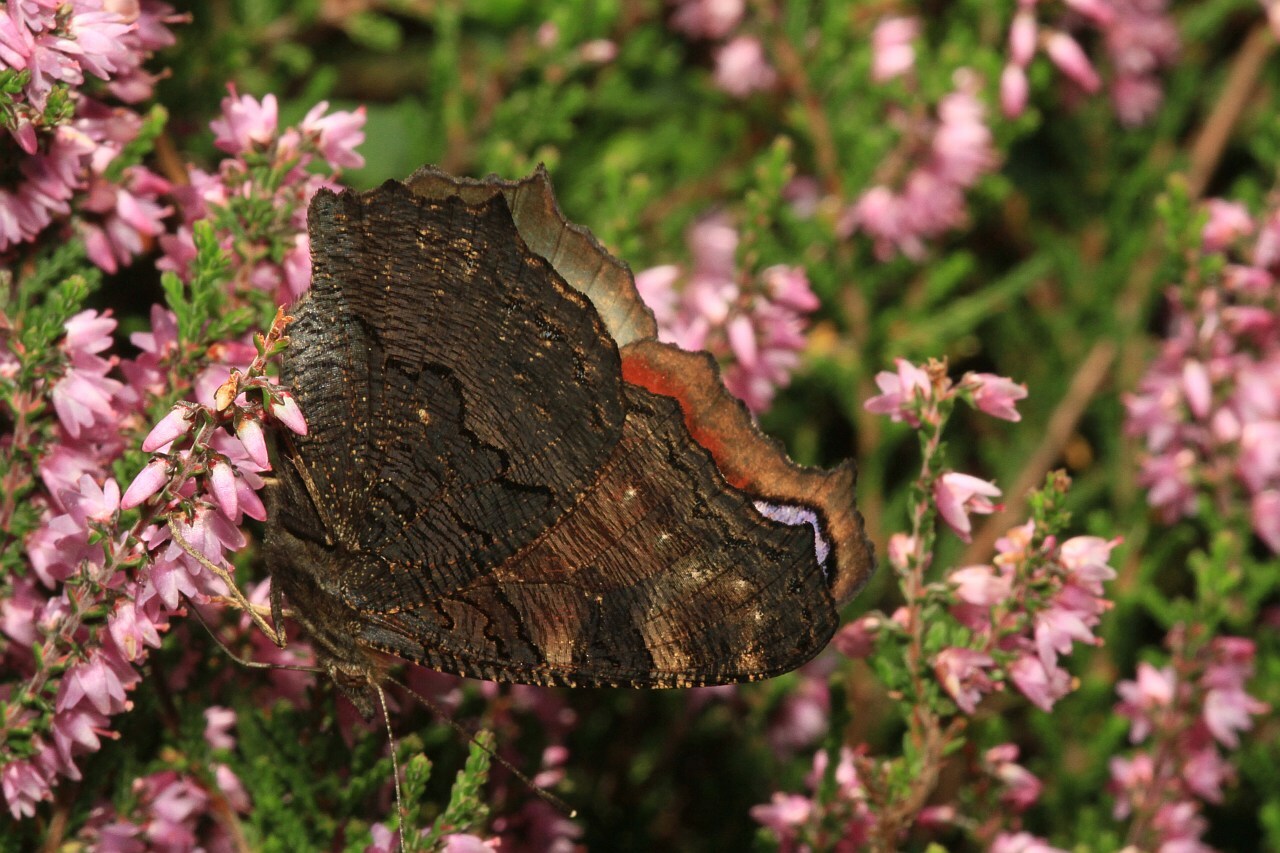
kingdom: Animalia
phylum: Arthropoda
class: Insecta
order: Lepidoptera
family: Nymphalidae
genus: Aglais
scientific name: Aglais io
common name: Peacock
